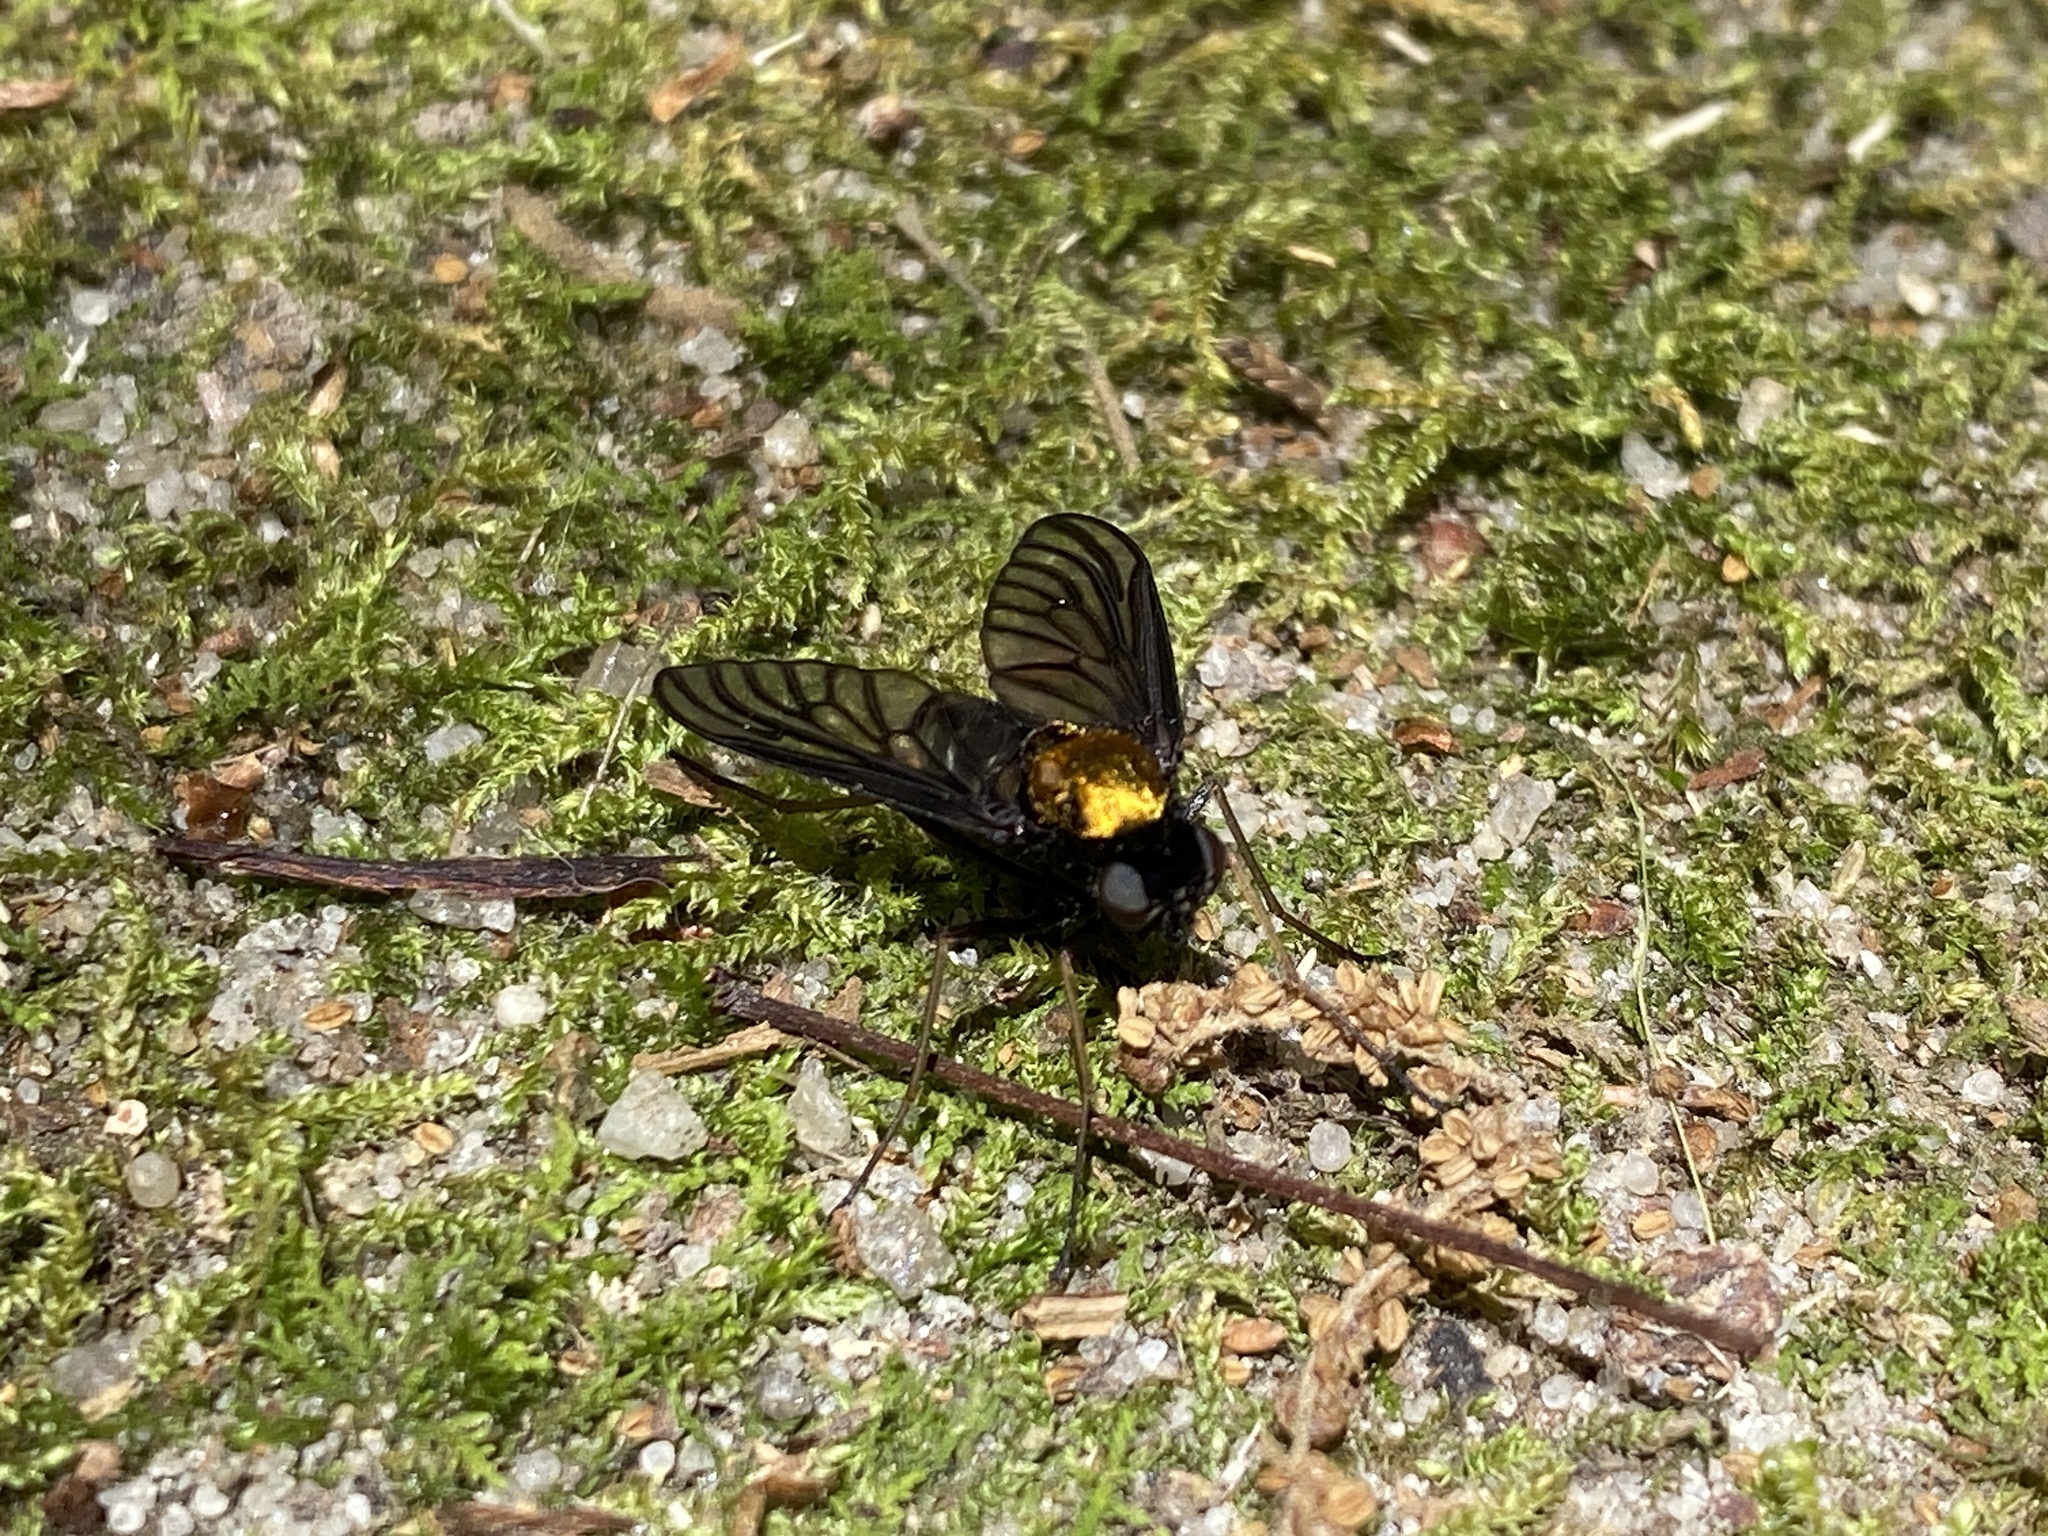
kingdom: Animalia
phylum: Arthropoda
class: Insecta
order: Diptera
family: Rhagionidae
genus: Chrysopilus
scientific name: Chrysopilus thoracicus
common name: Golden-backed snipe fly
